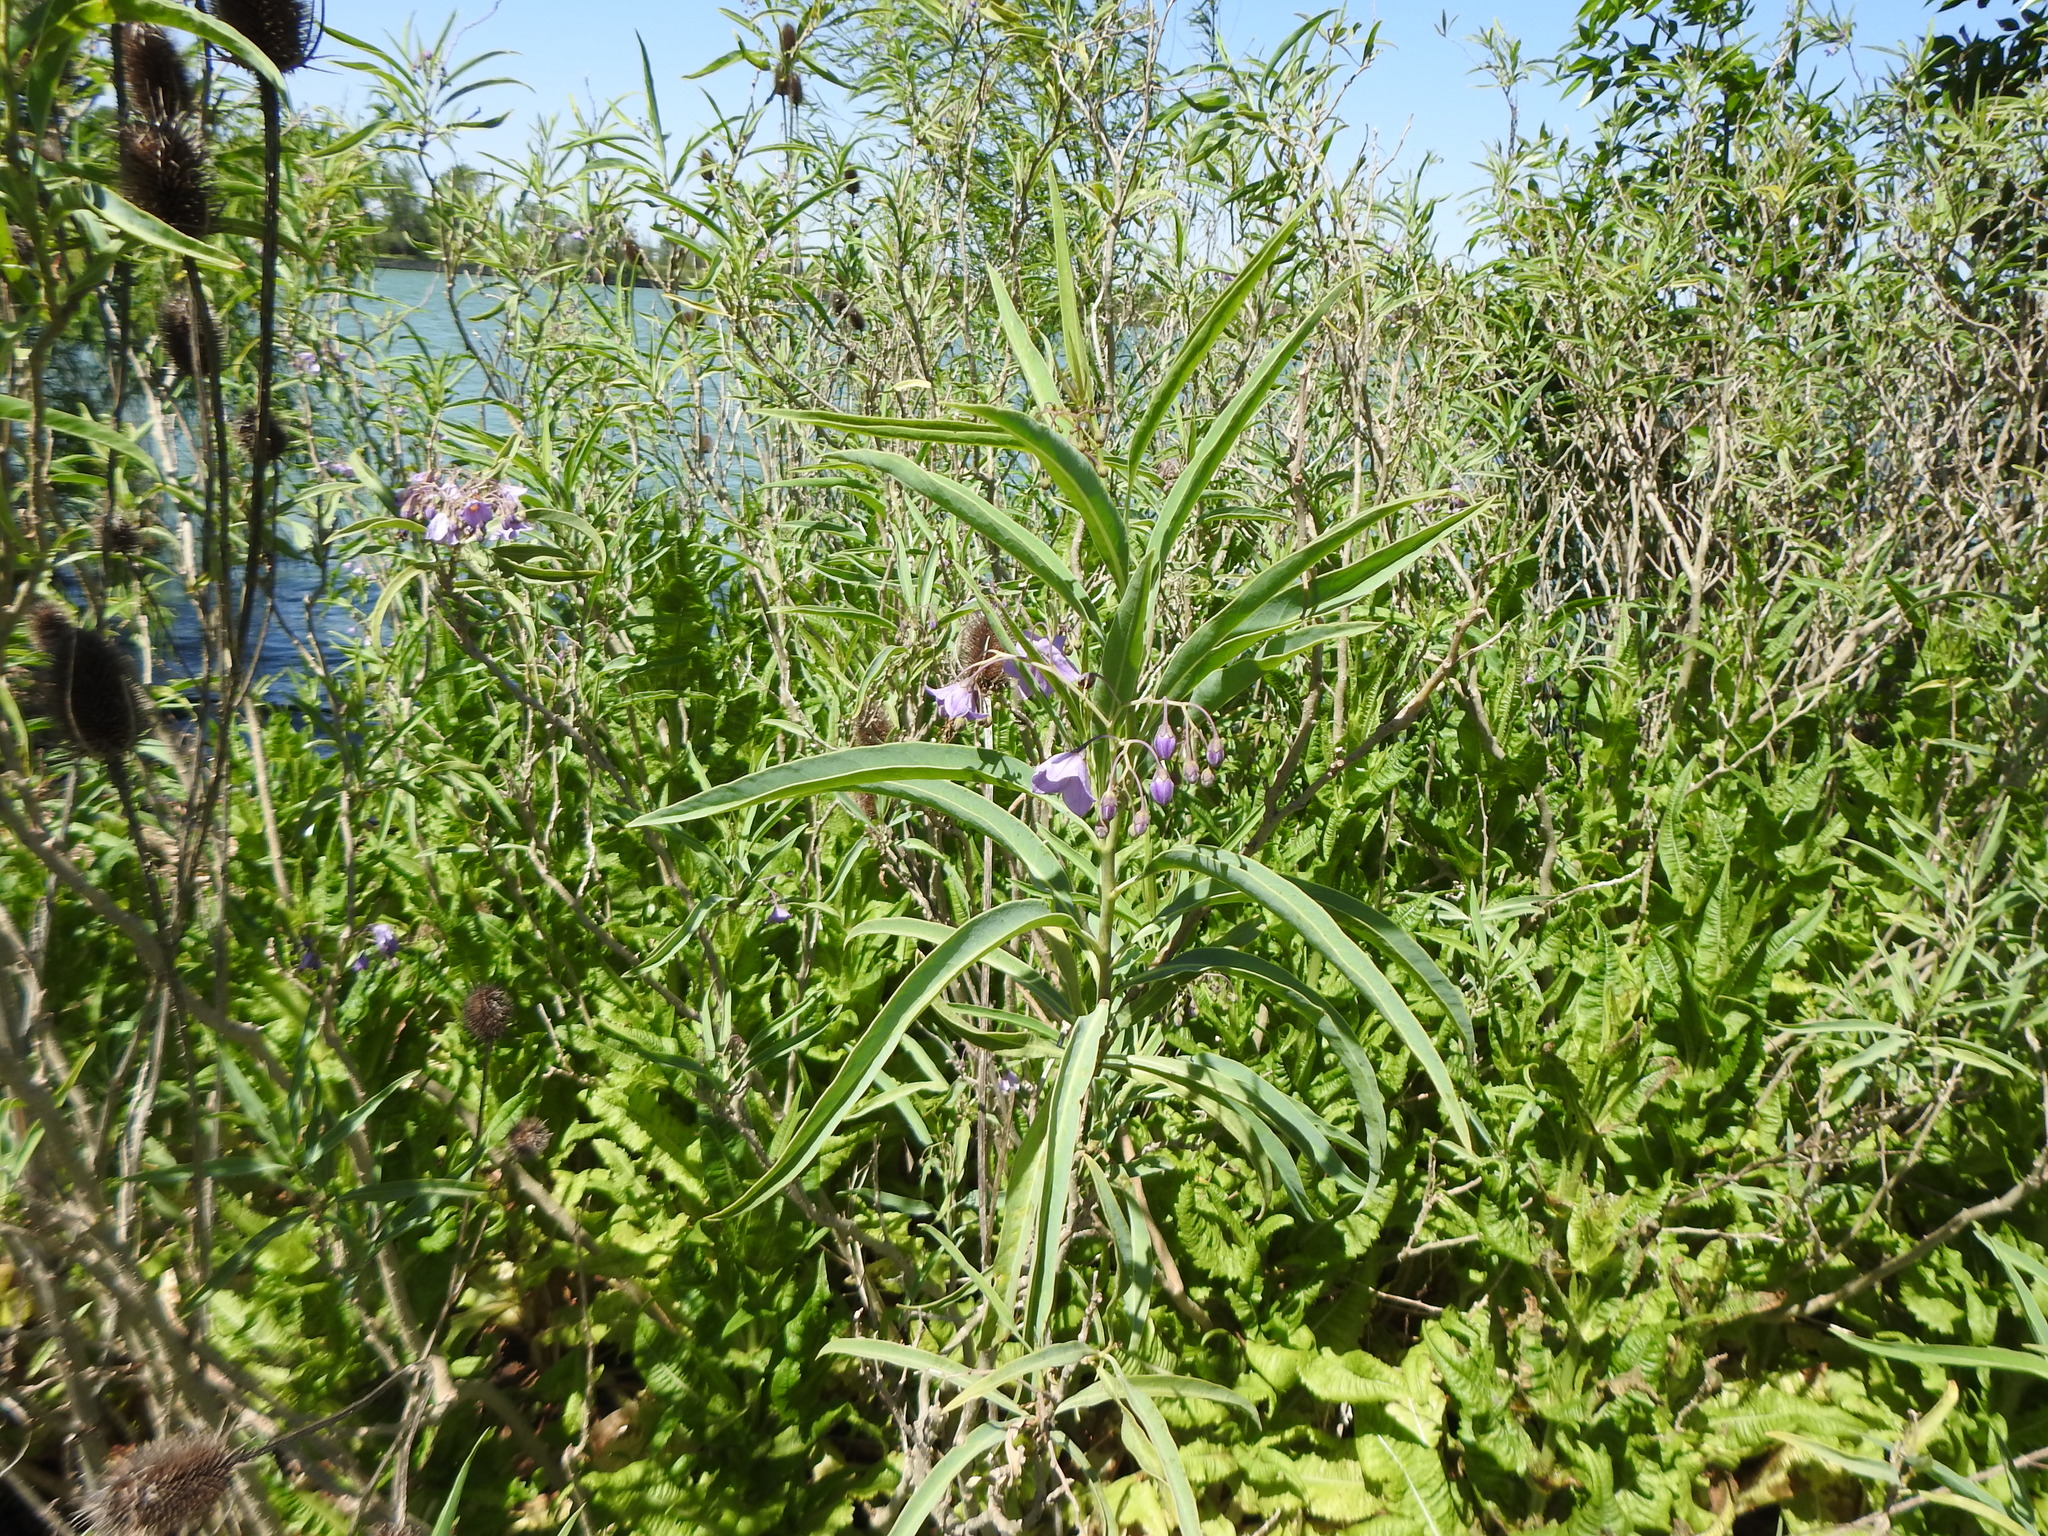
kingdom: Plantae
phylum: Tracheophyta
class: Magnoliopsida
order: Solanales
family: Solanaceae
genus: Solanum
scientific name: Solanum glaucophyllum
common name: Waxyleaf nightshade
